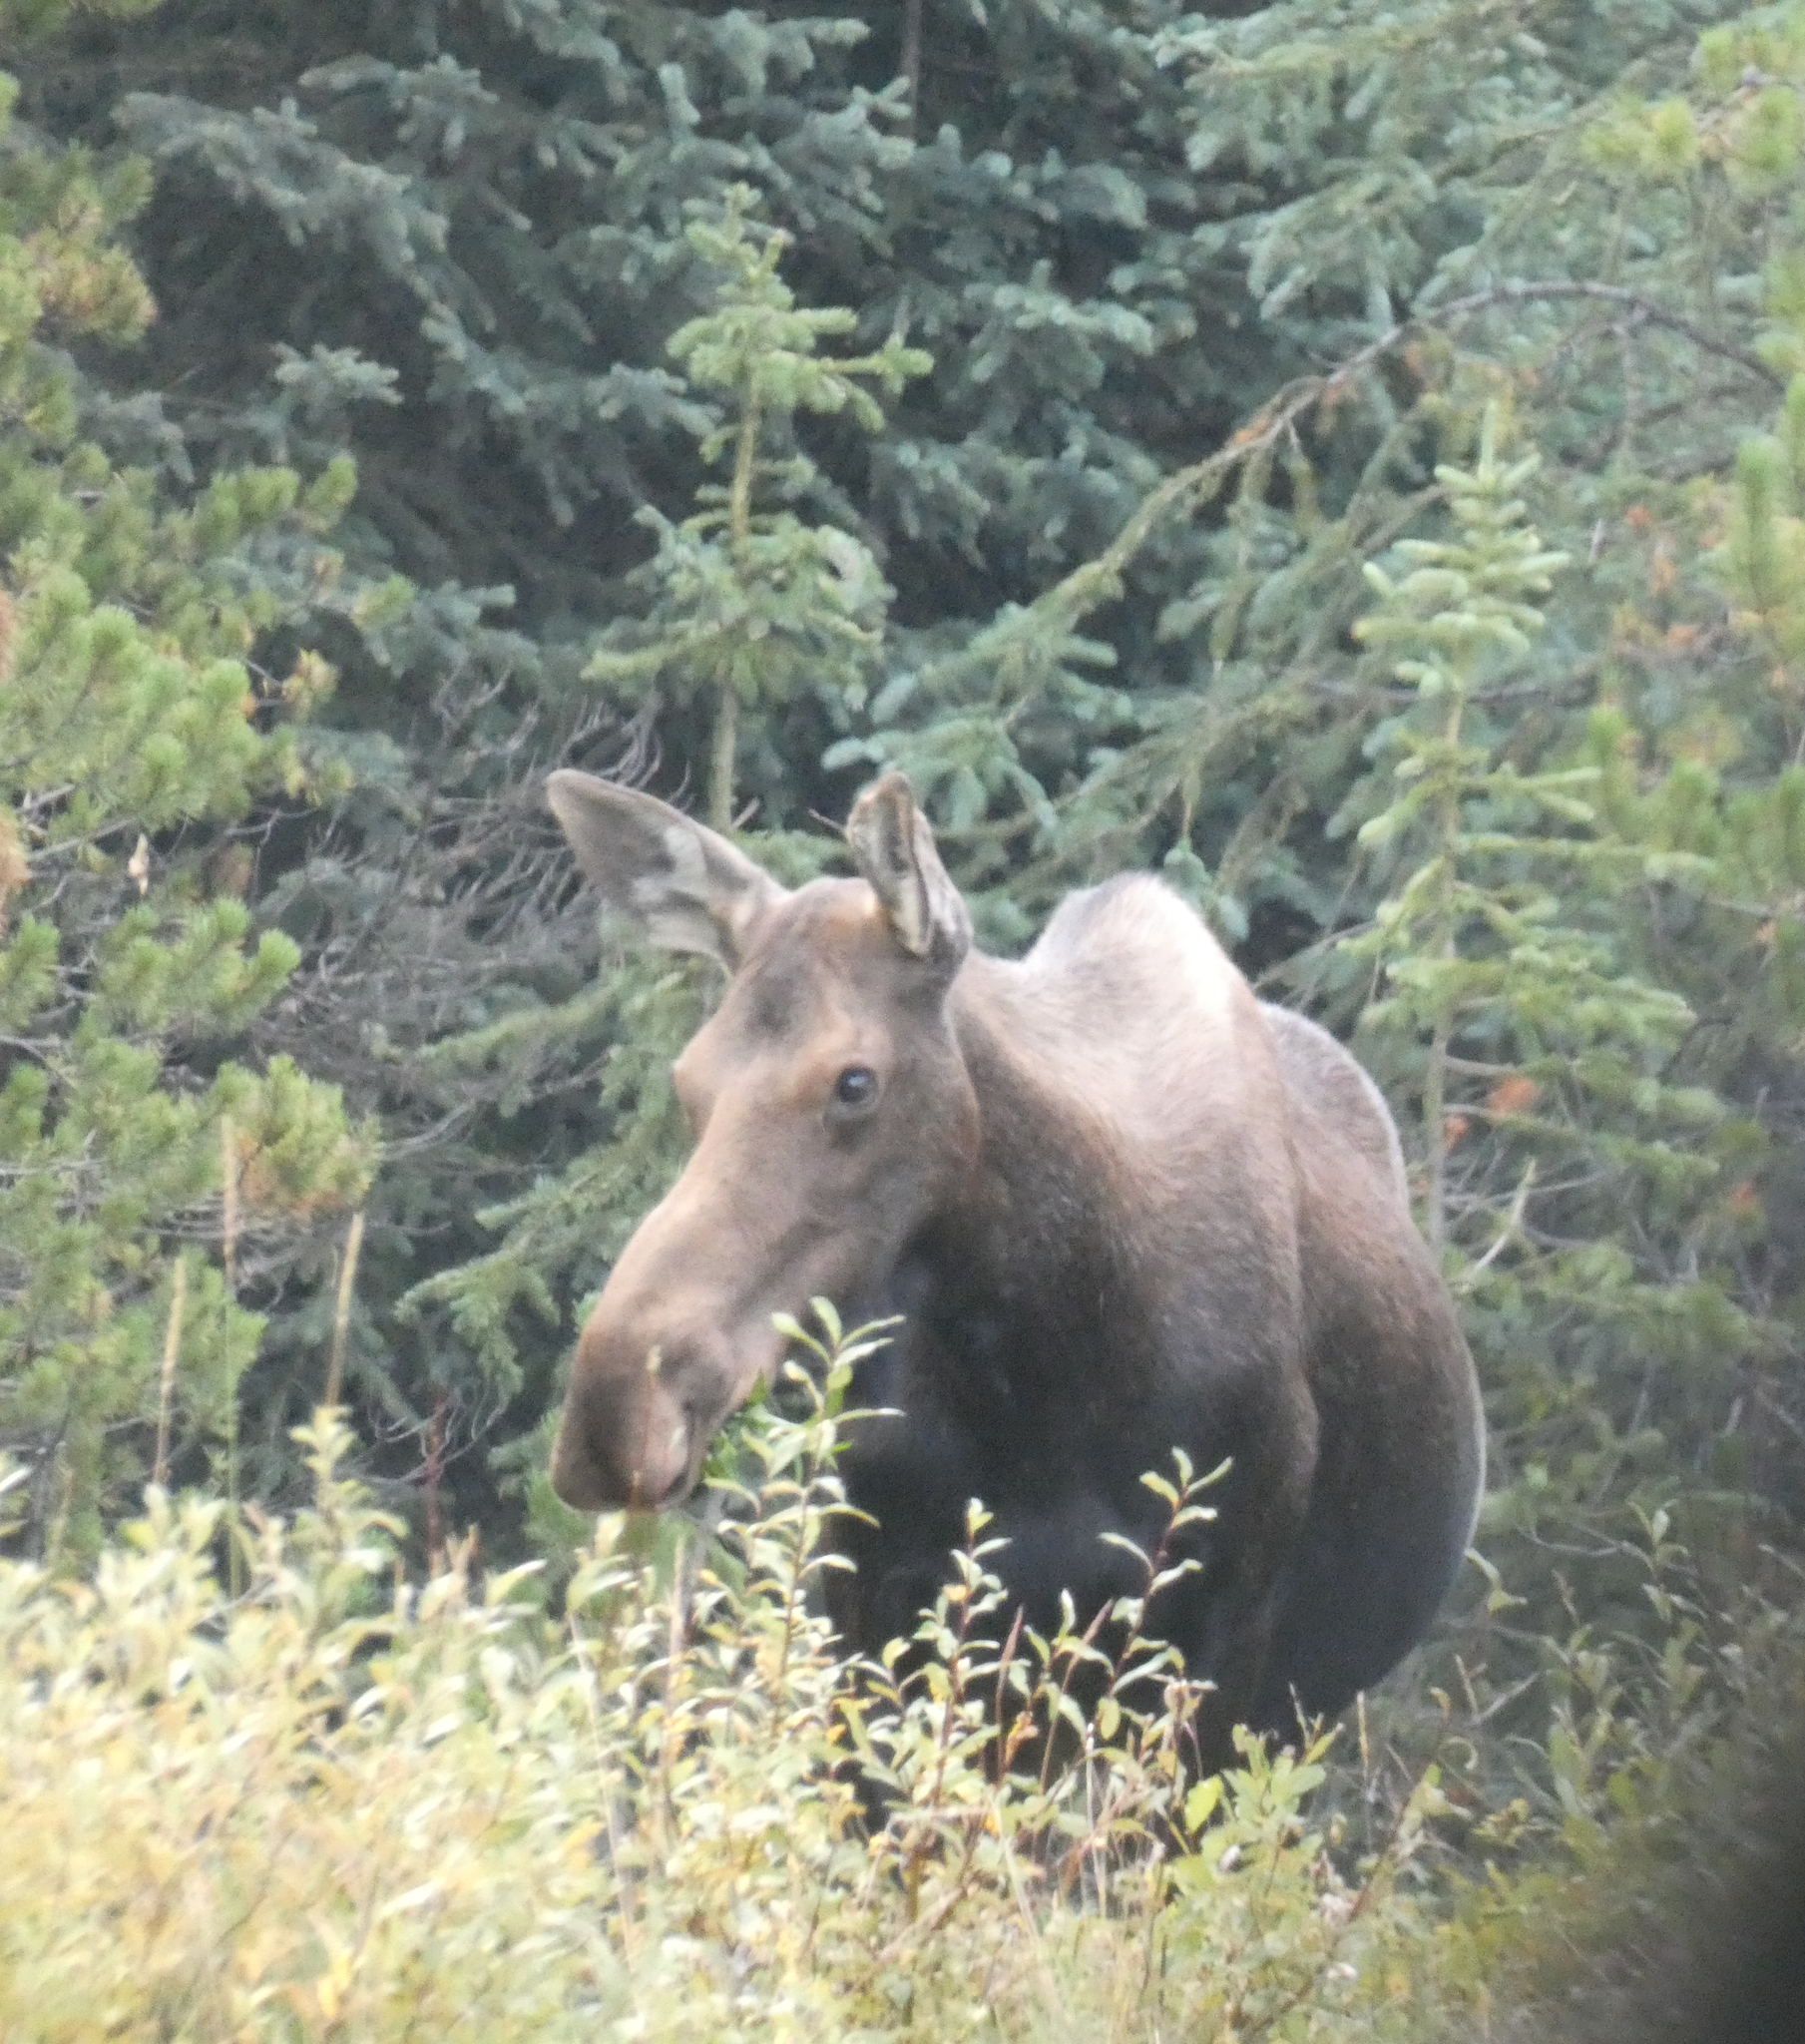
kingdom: Animalia
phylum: Chordata
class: Mammalia
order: Artiodactyla
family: Cervidae
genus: Alces
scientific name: Alces alces
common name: Moose
